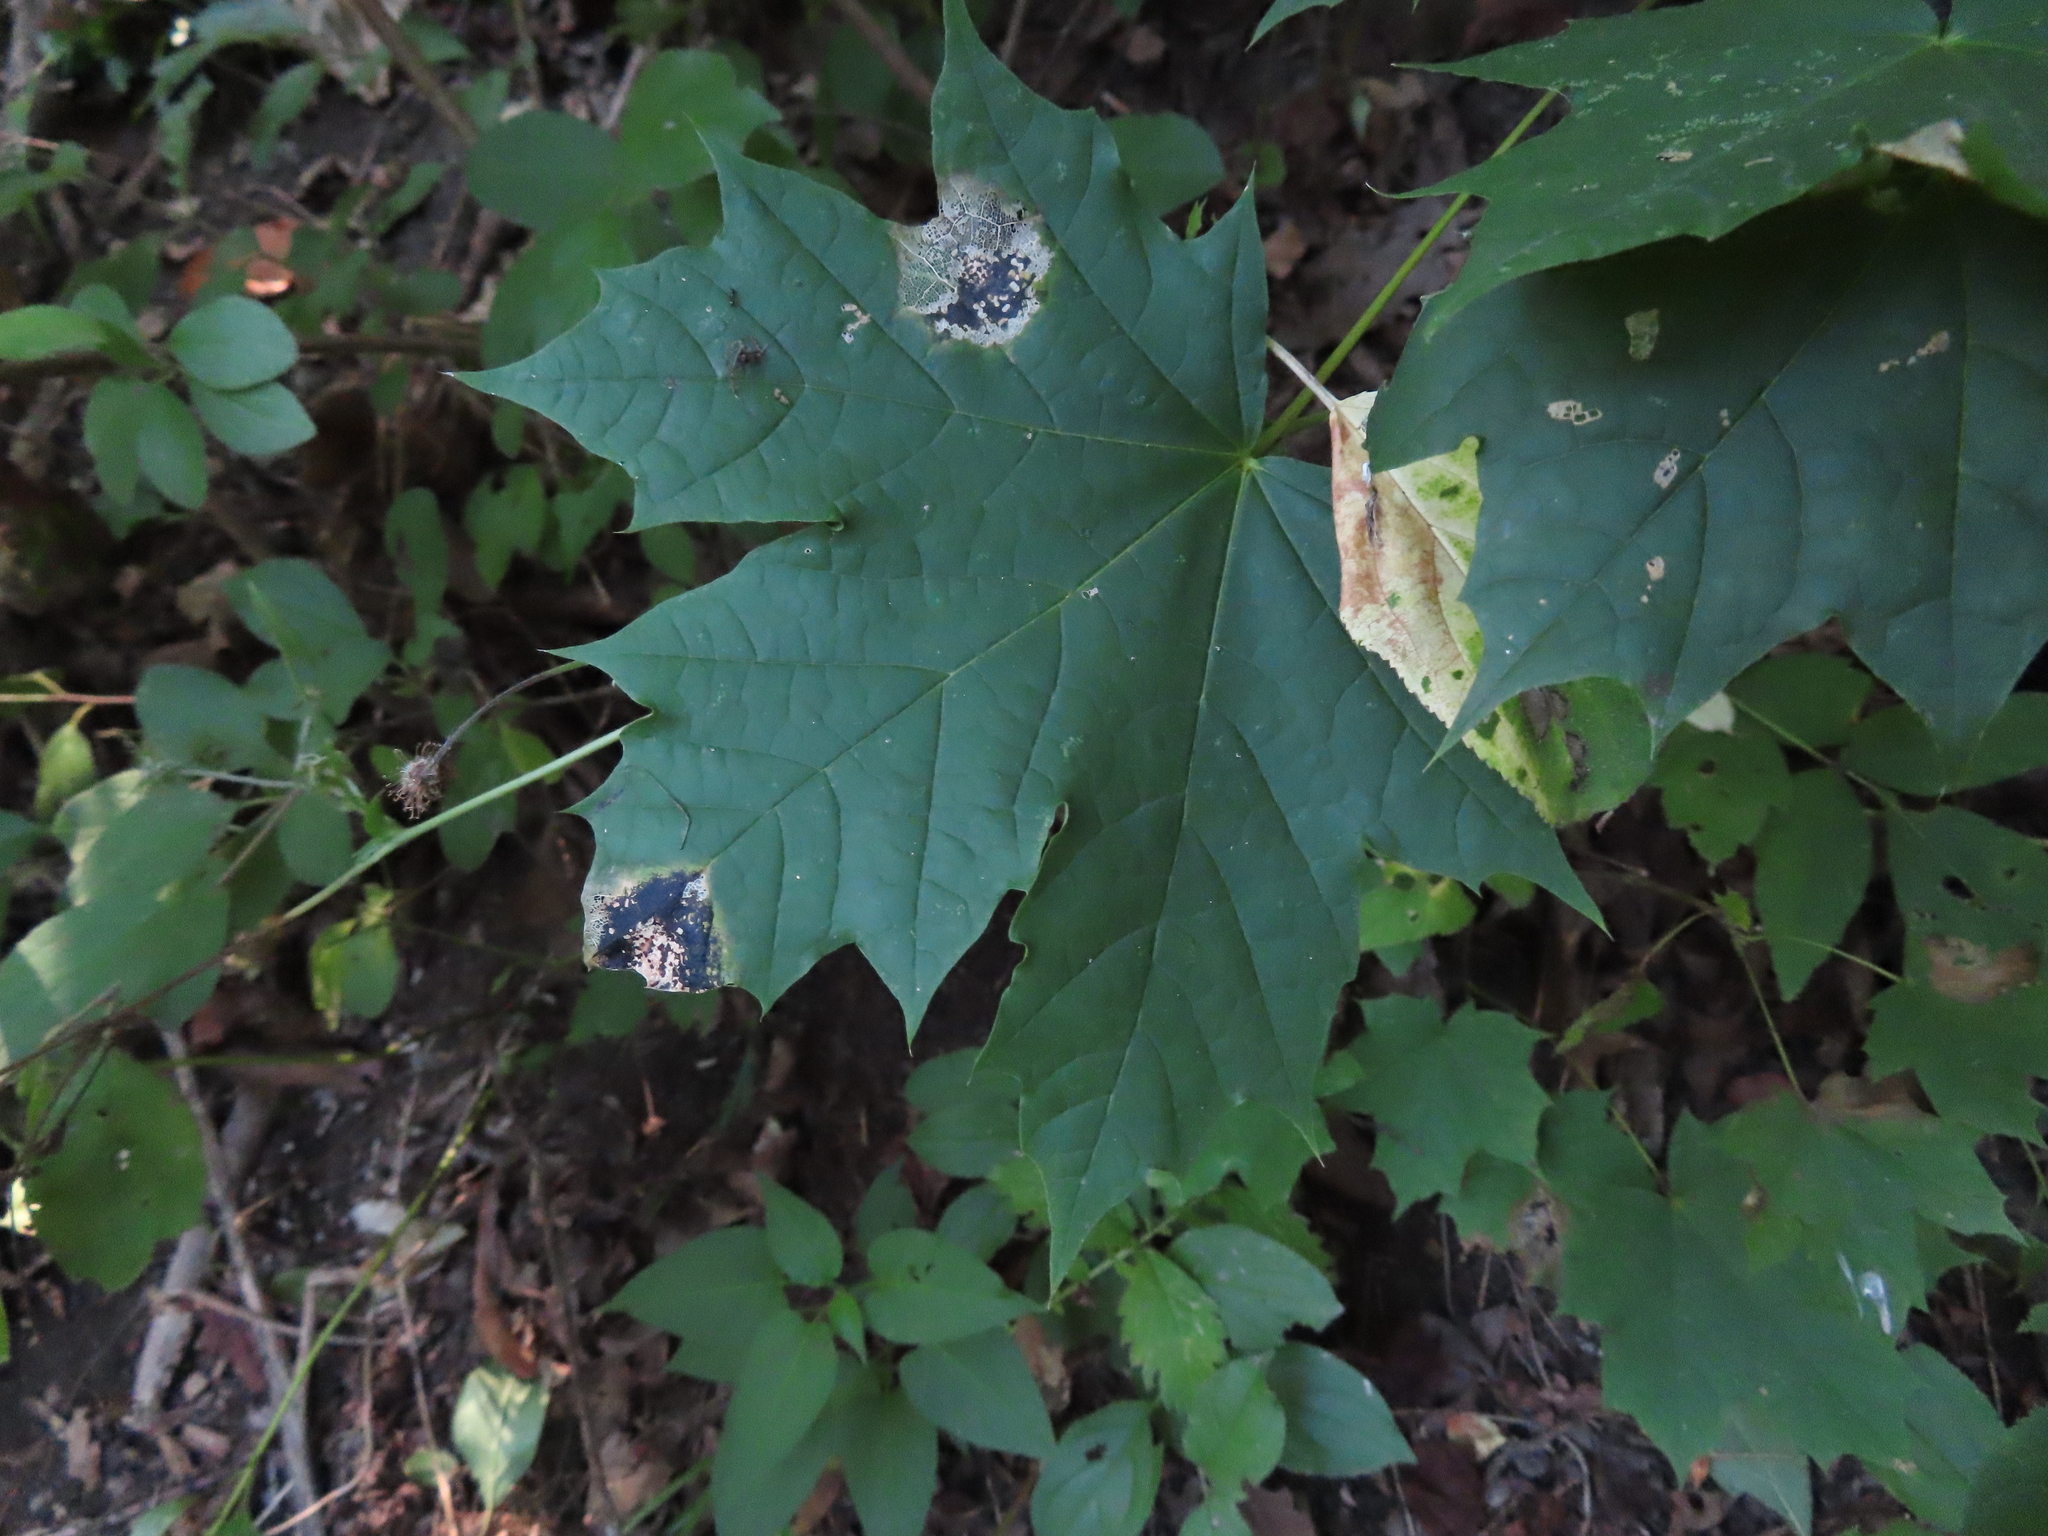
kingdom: Plantae
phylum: Tracheophyta
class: Magnoliopsida
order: Sapindales
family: Sapindaceae
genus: Acer
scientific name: Acer platanoides
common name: Norway maple
